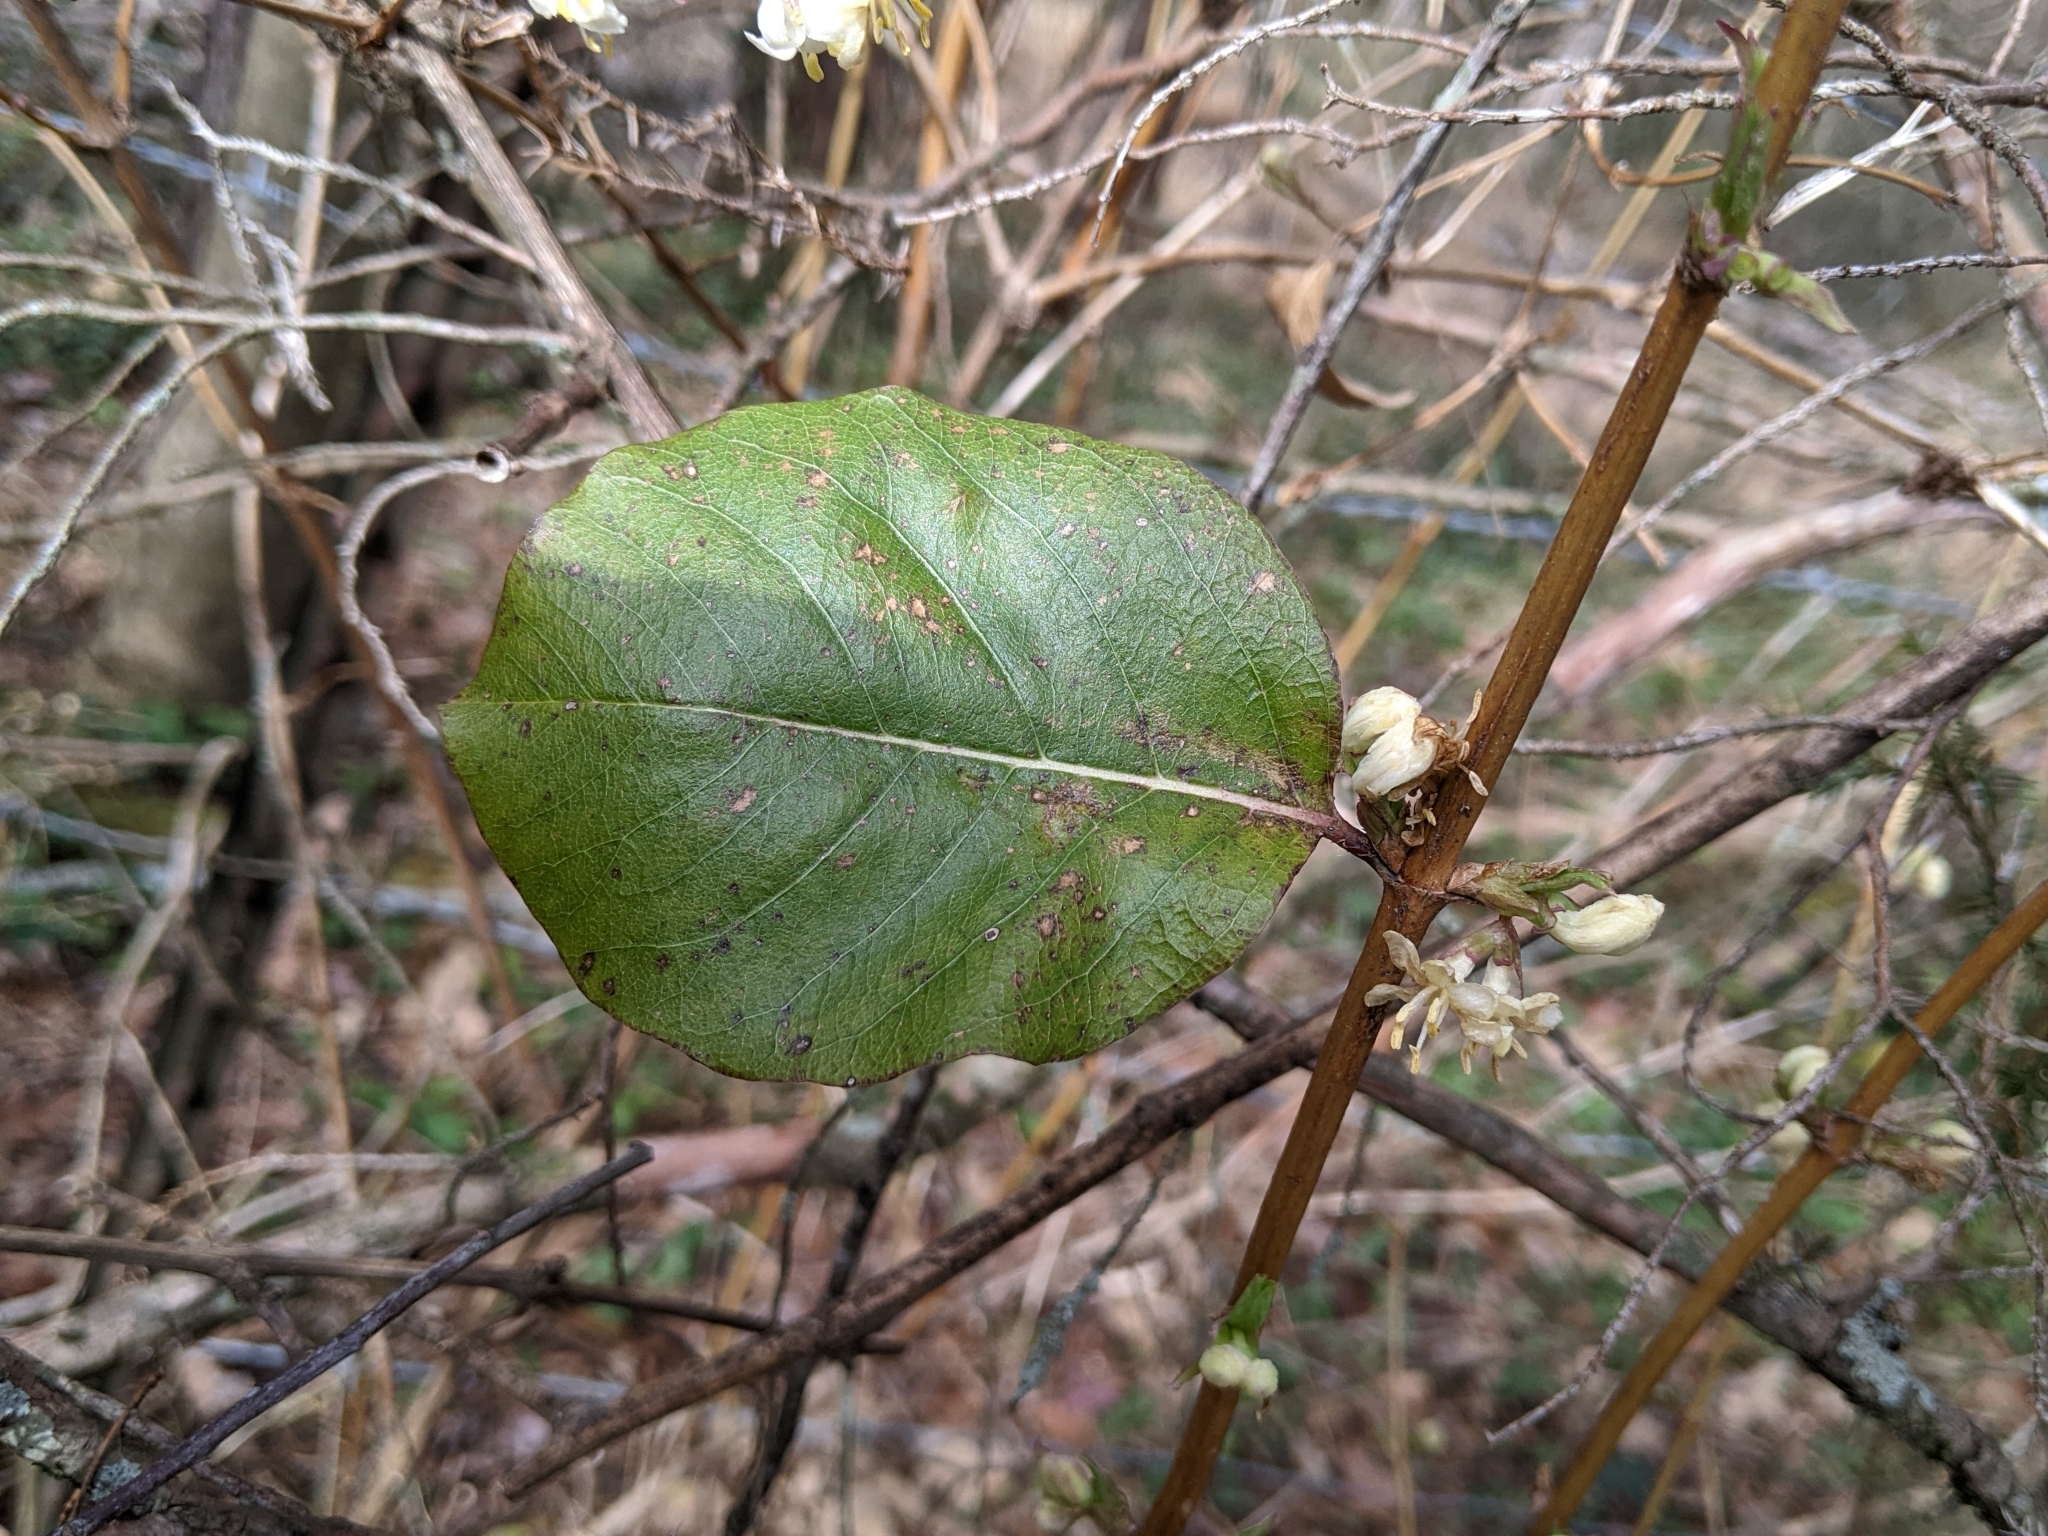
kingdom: Plantae
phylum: Tracheophyta
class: Magnoliopsida
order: Dipsacales
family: Caprifoliaceae
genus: Lonicera
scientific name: Lonicera fragrantissima
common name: Fragrant honeysuckle
